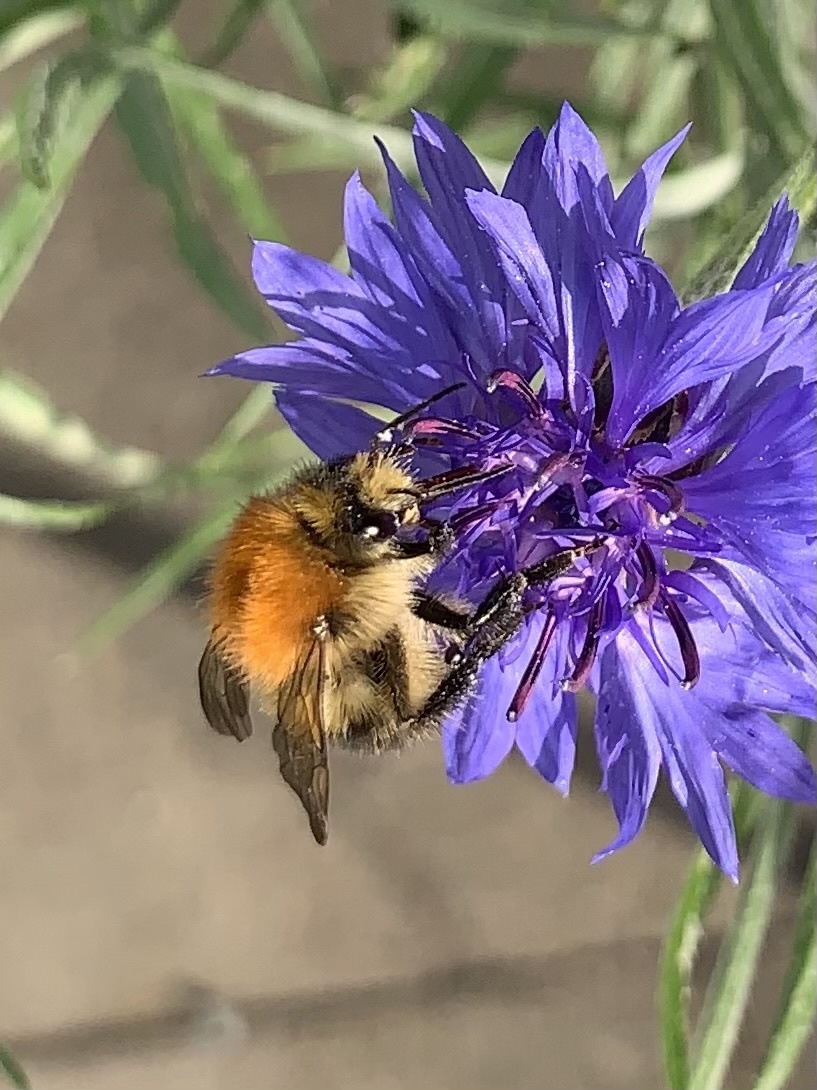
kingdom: Animalia
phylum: Arthropoda
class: Insecta
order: Hymenoptera
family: Apidae
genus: Bombus
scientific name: Bombus pascuorum
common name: Common carder bee
